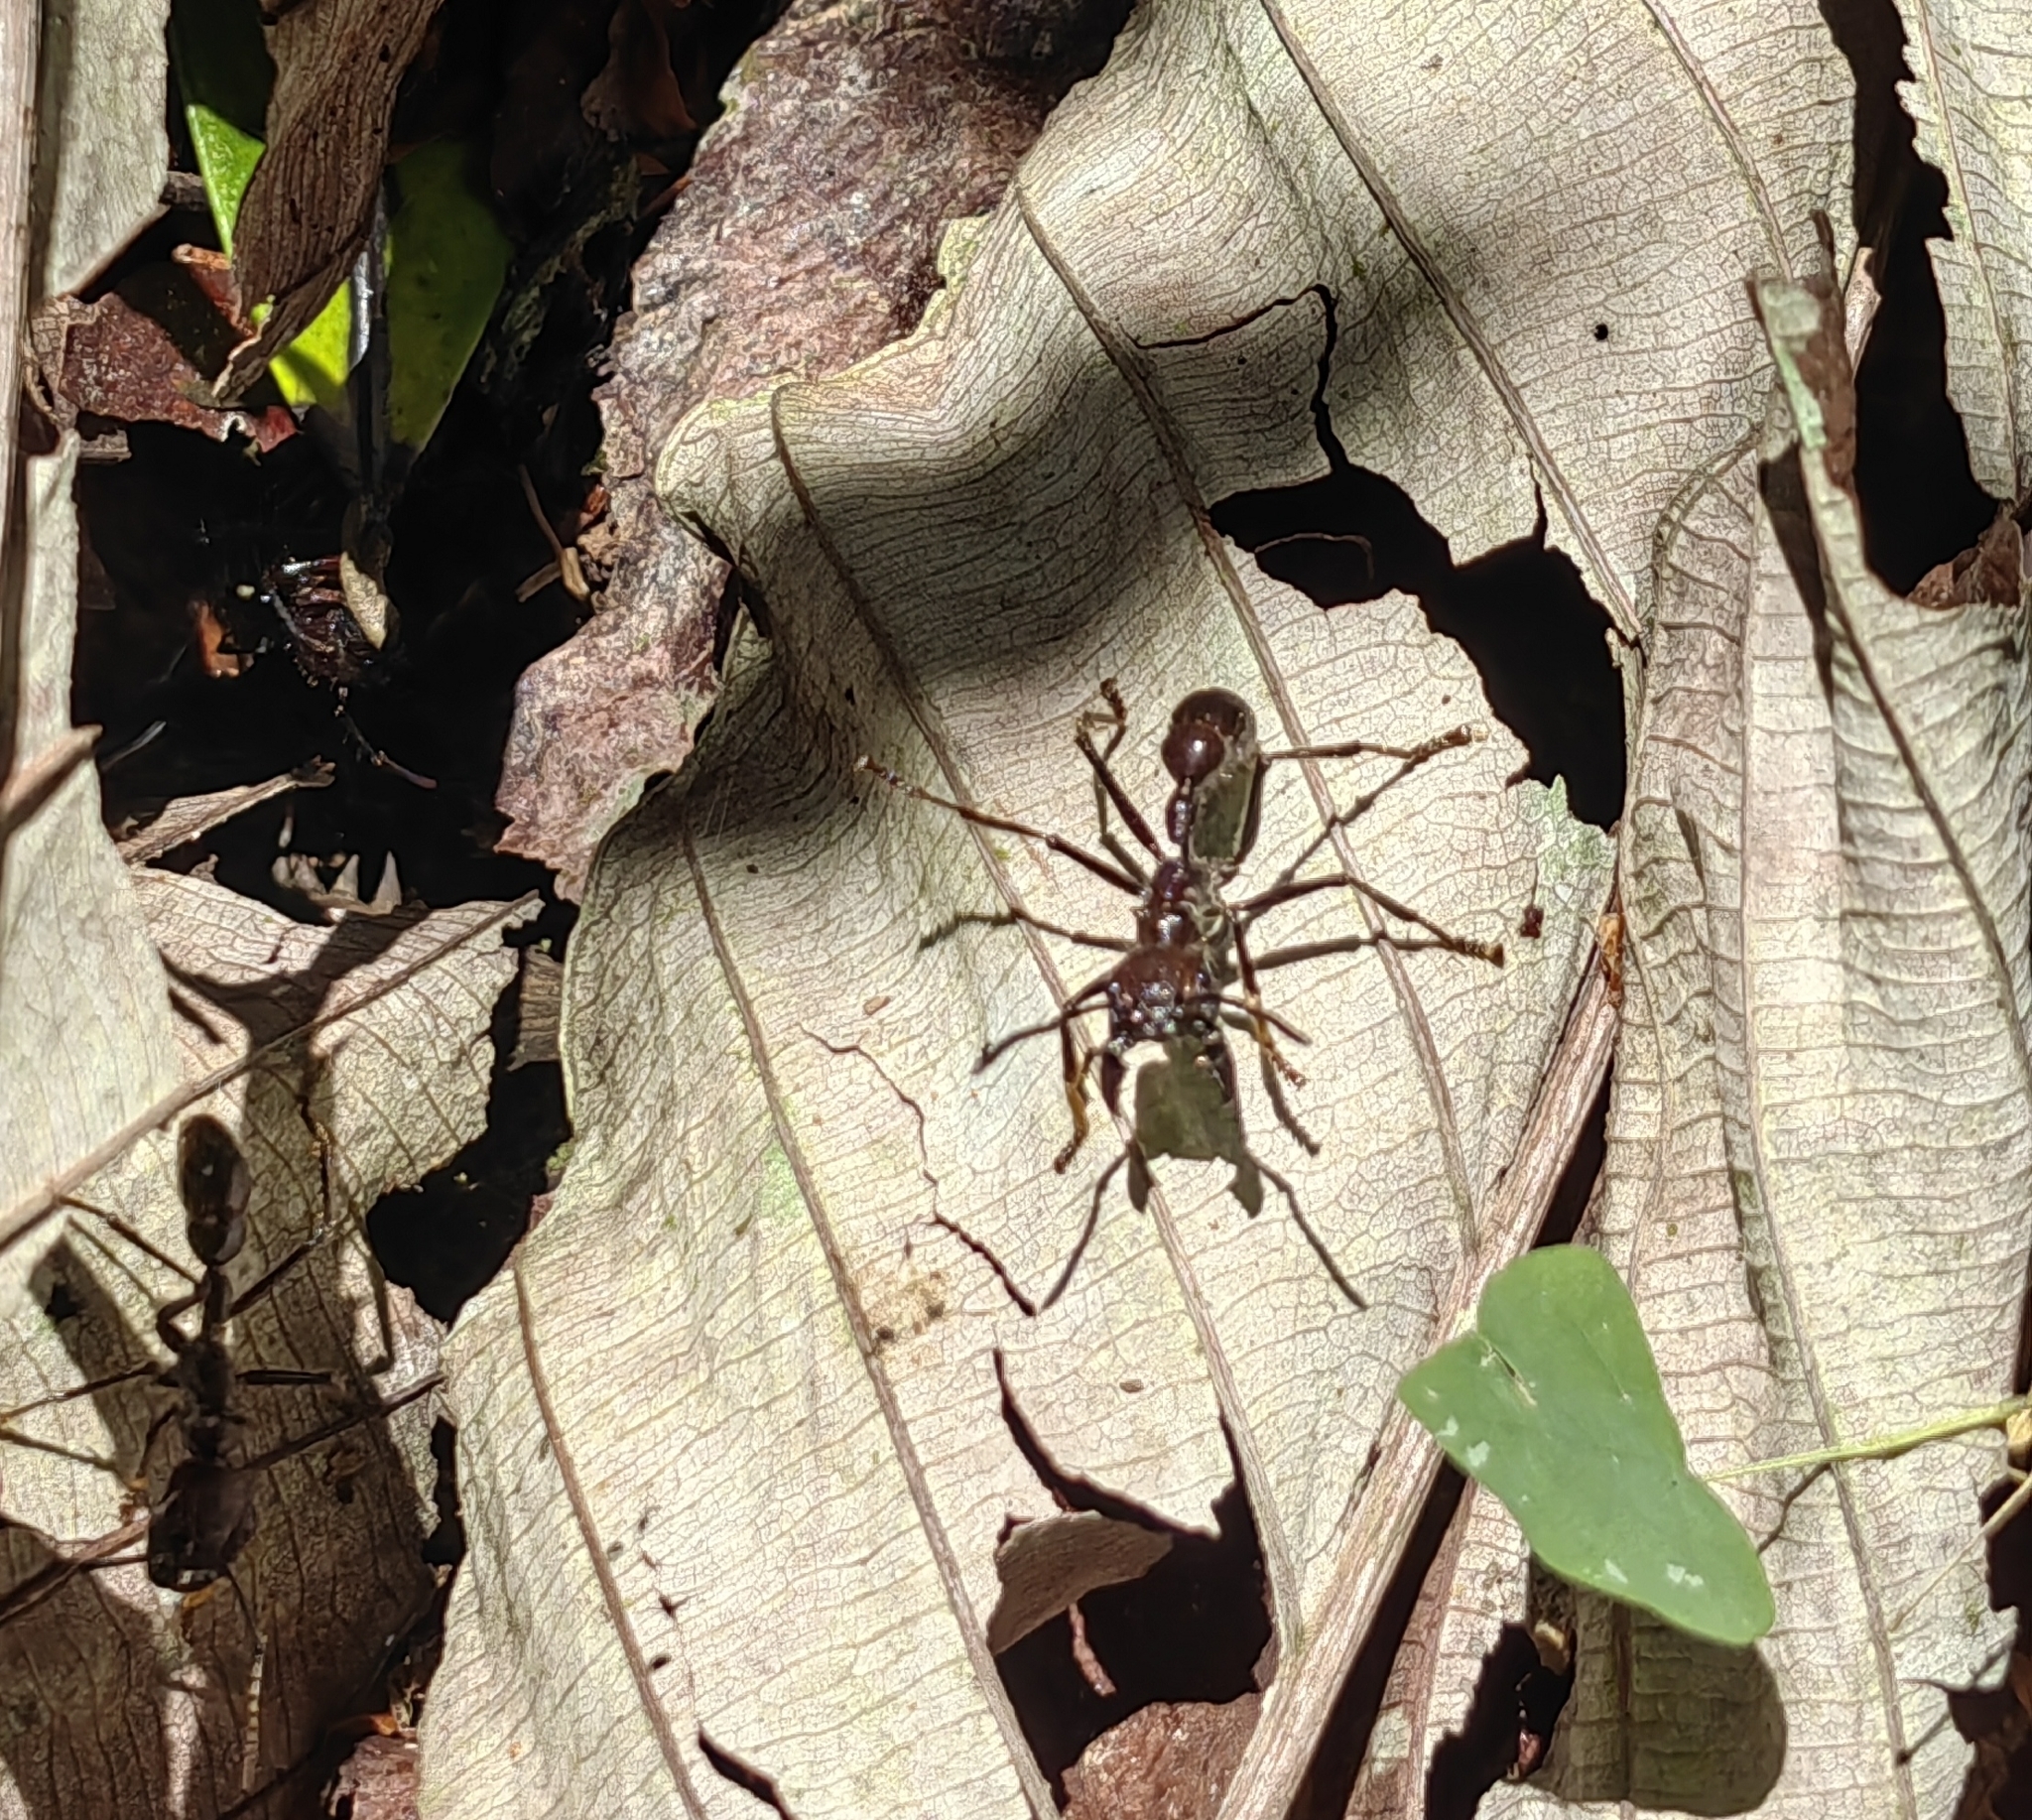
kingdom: Animalia
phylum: Arthropoda
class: Insecta
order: Hymenoptera
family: Formicidae
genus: Paraponera
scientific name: Paraponera clavata
